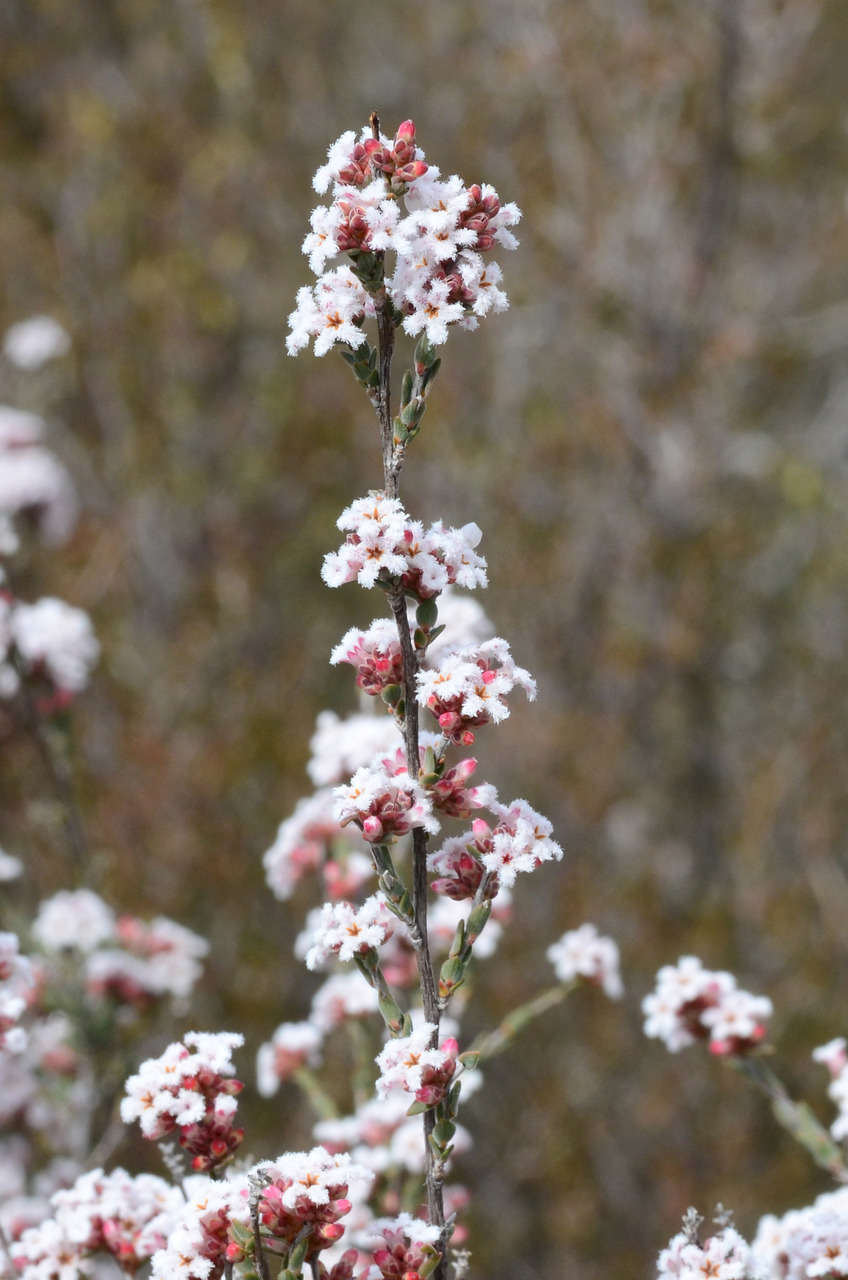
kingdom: Plantae
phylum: Tracheophyta
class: Magnoliopsida
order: Ericales
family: Ericaceae
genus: Leucopogon
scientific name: Leucopogon virgatus
